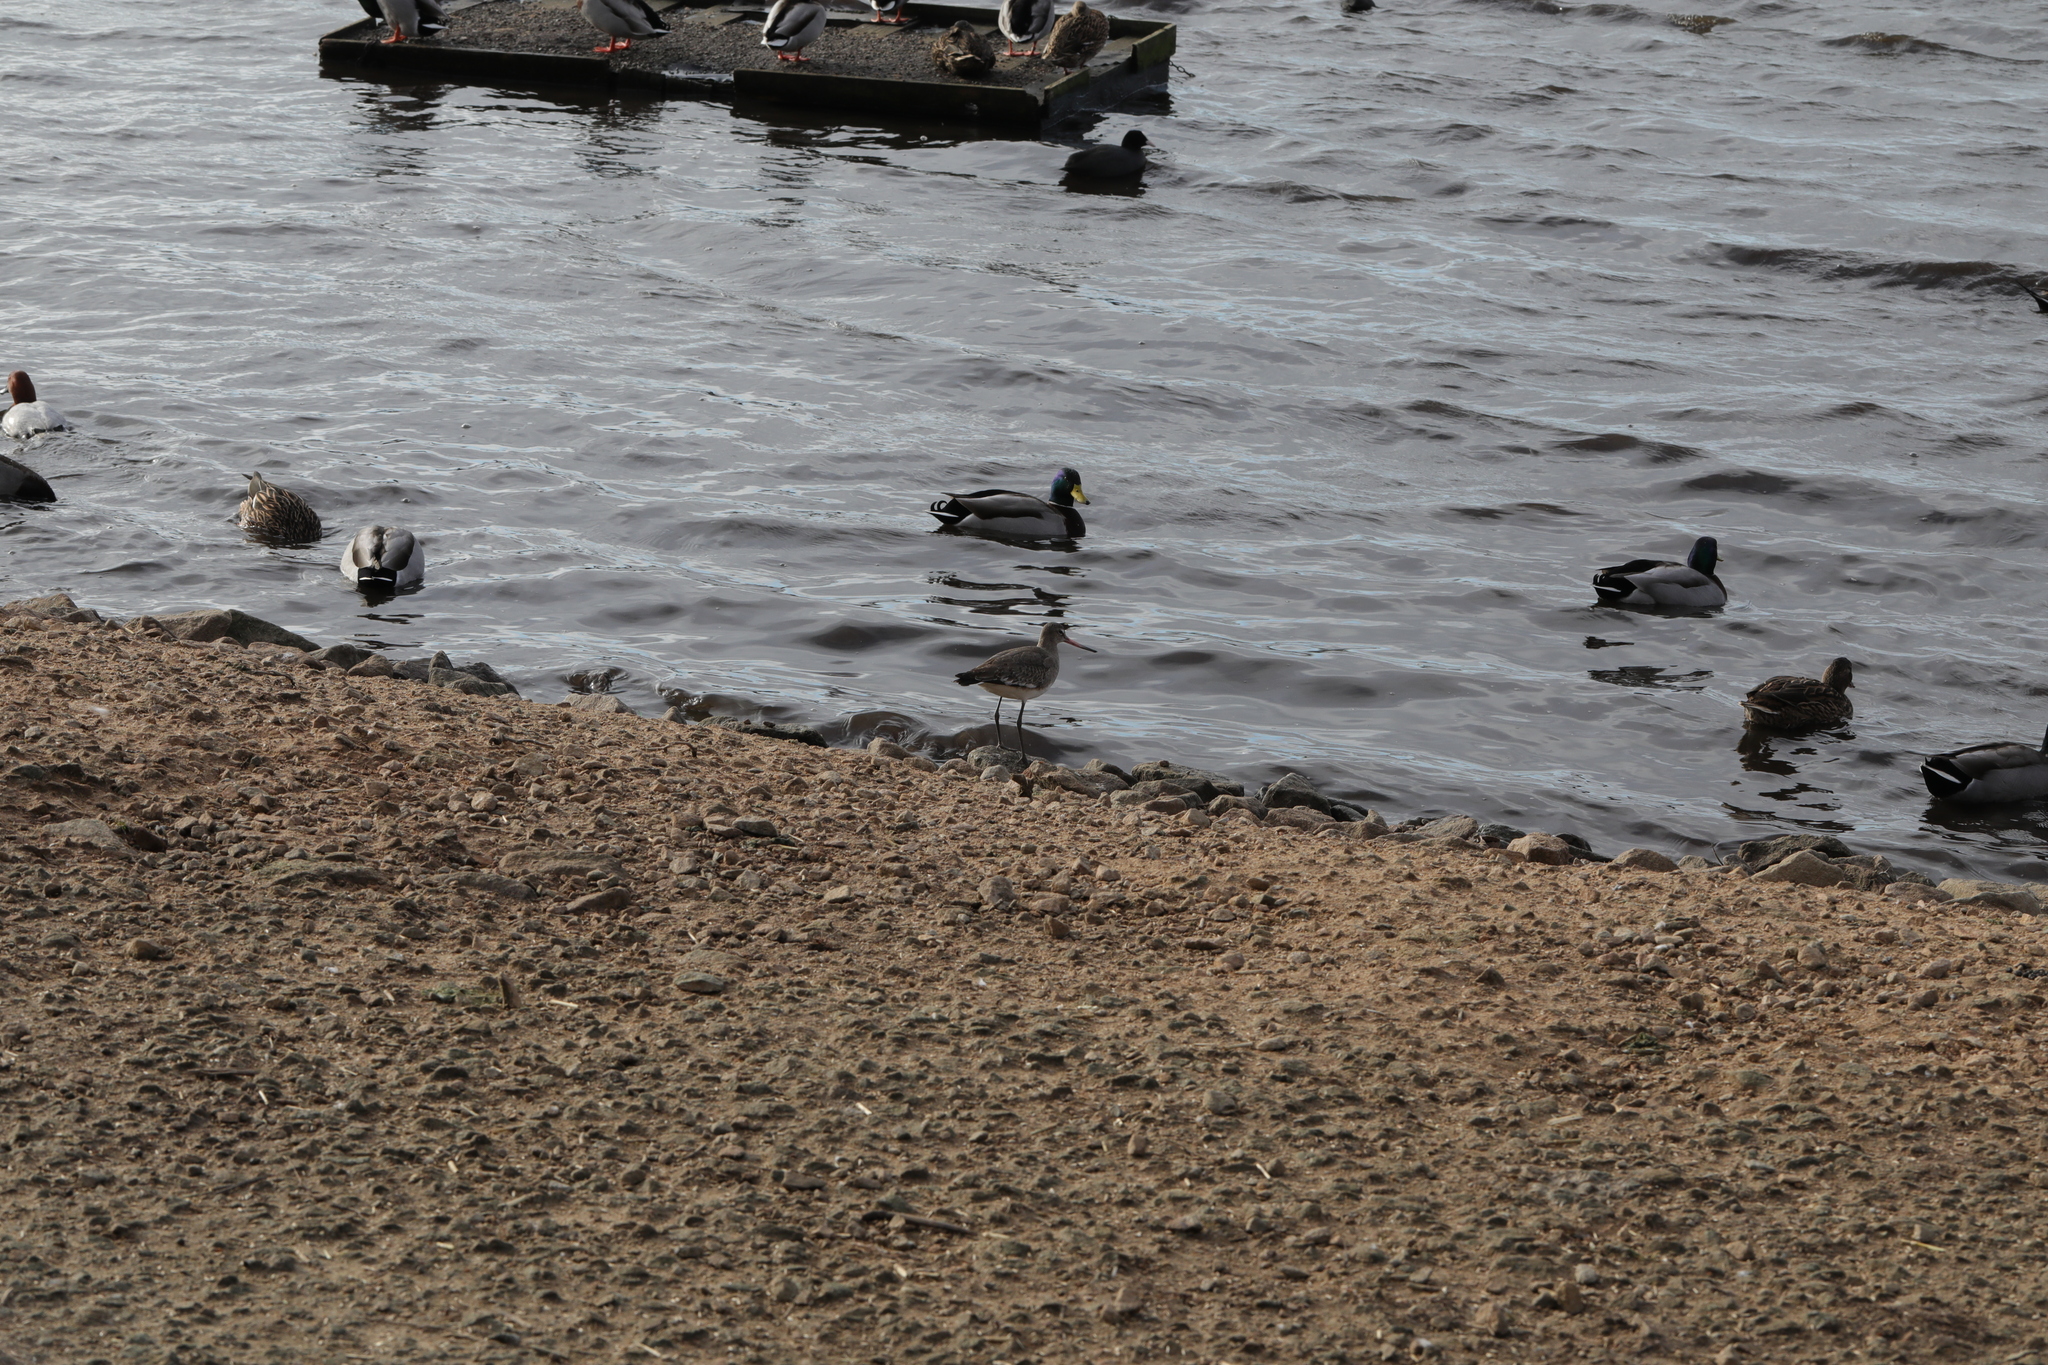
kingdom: Animalia
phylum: Chordata
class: Aves
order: Anseriformes
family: Anatidae
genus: Anas
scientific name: Anas platyrhynchos
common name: Mallard
